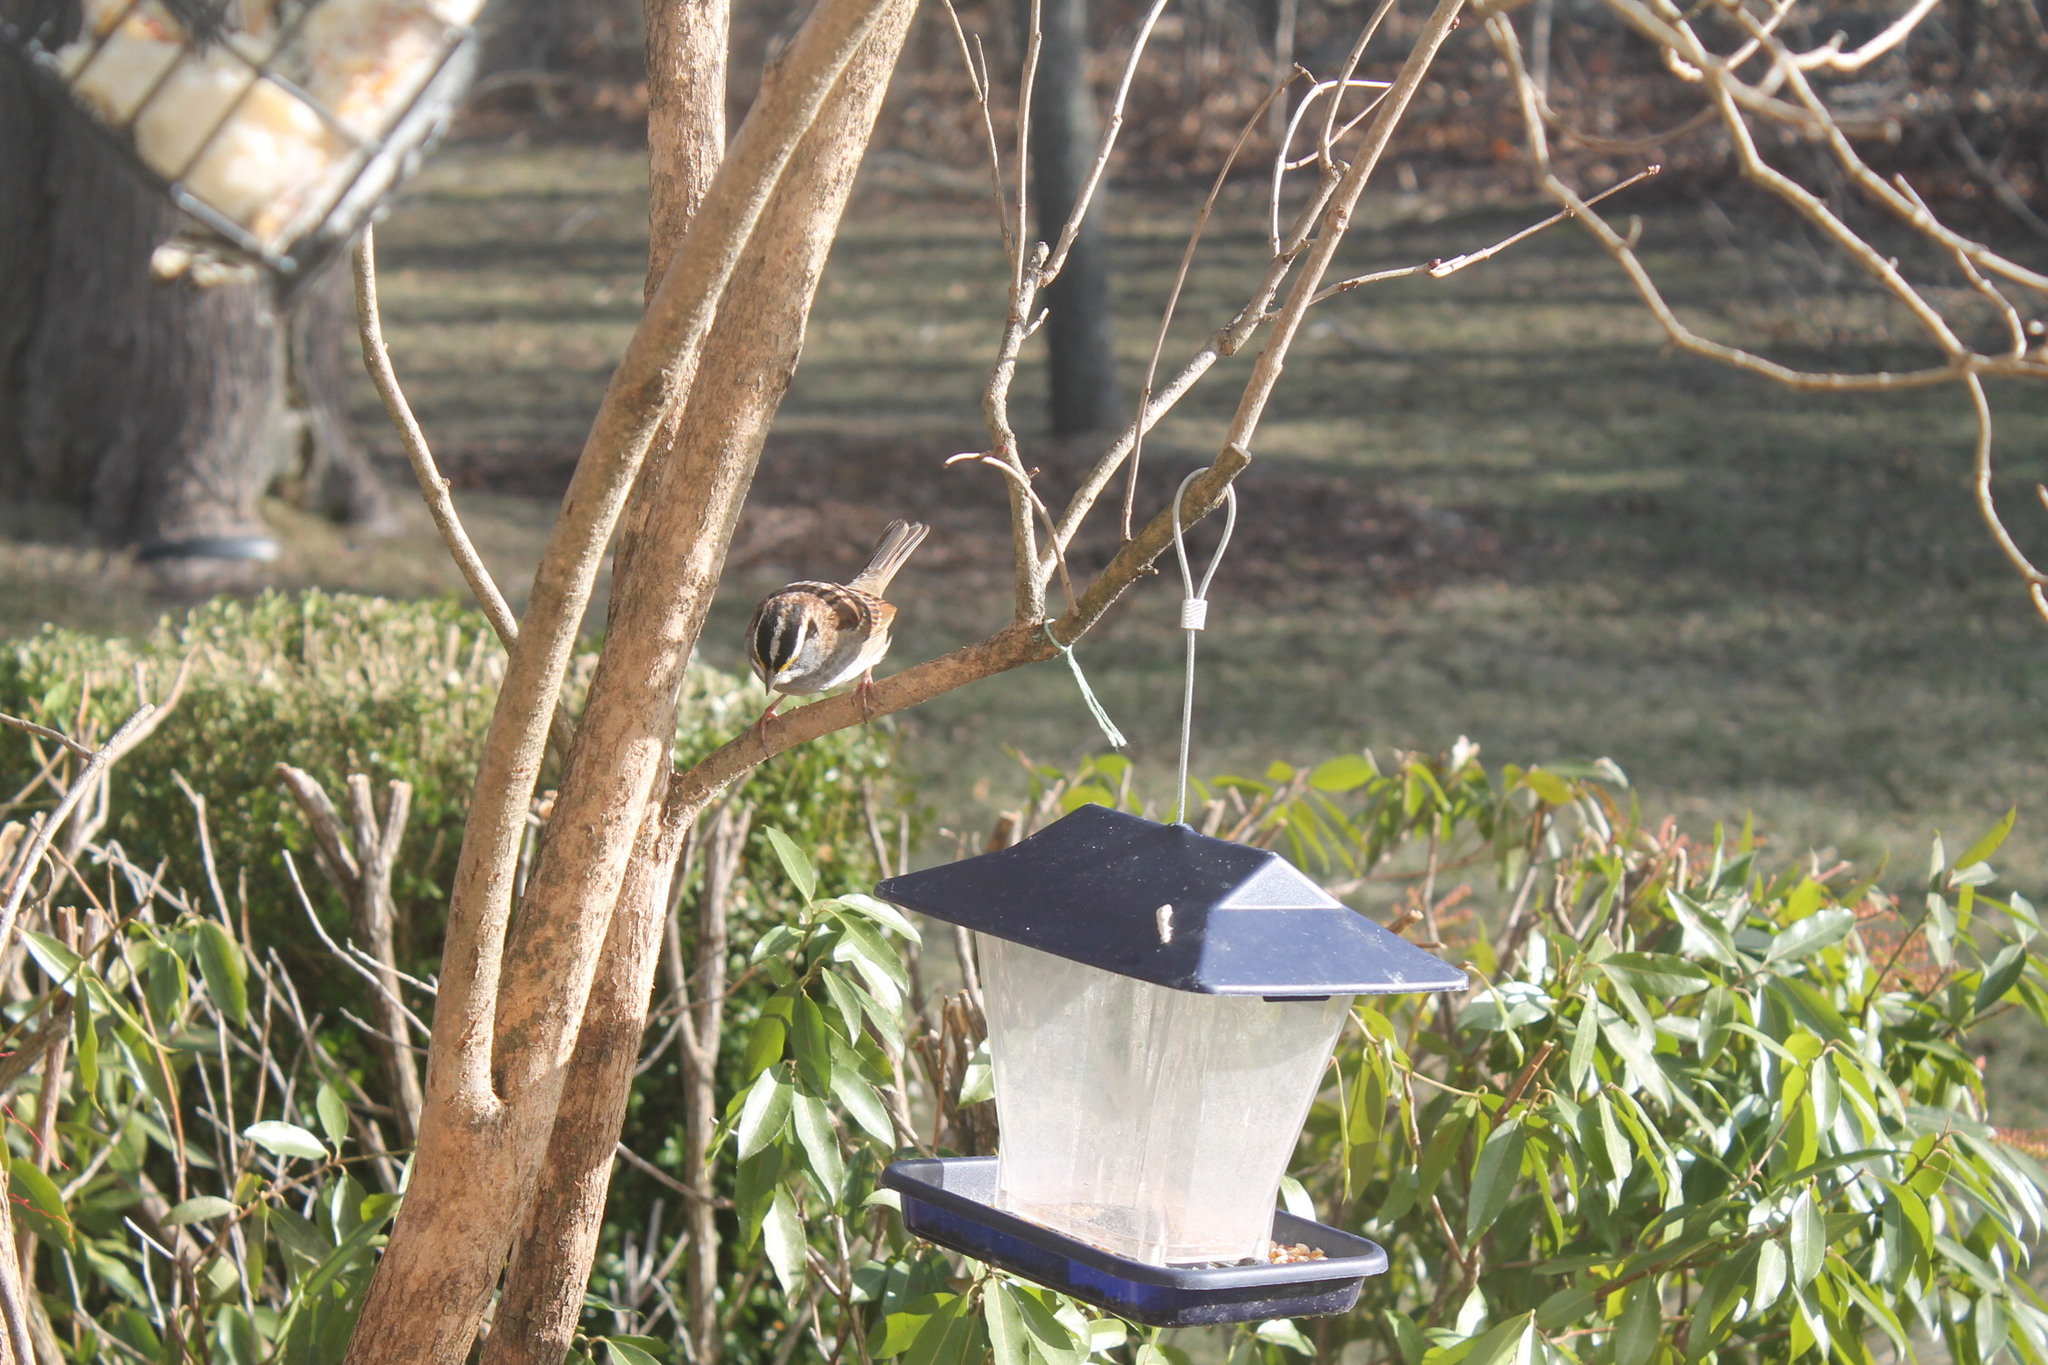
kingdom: Animalia
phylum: Chordata
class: Aves
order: Passeriformes
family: Passerellidae
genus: Zonotrichia
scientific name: Zonotrichia albicollis
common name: White-throated sparrow
